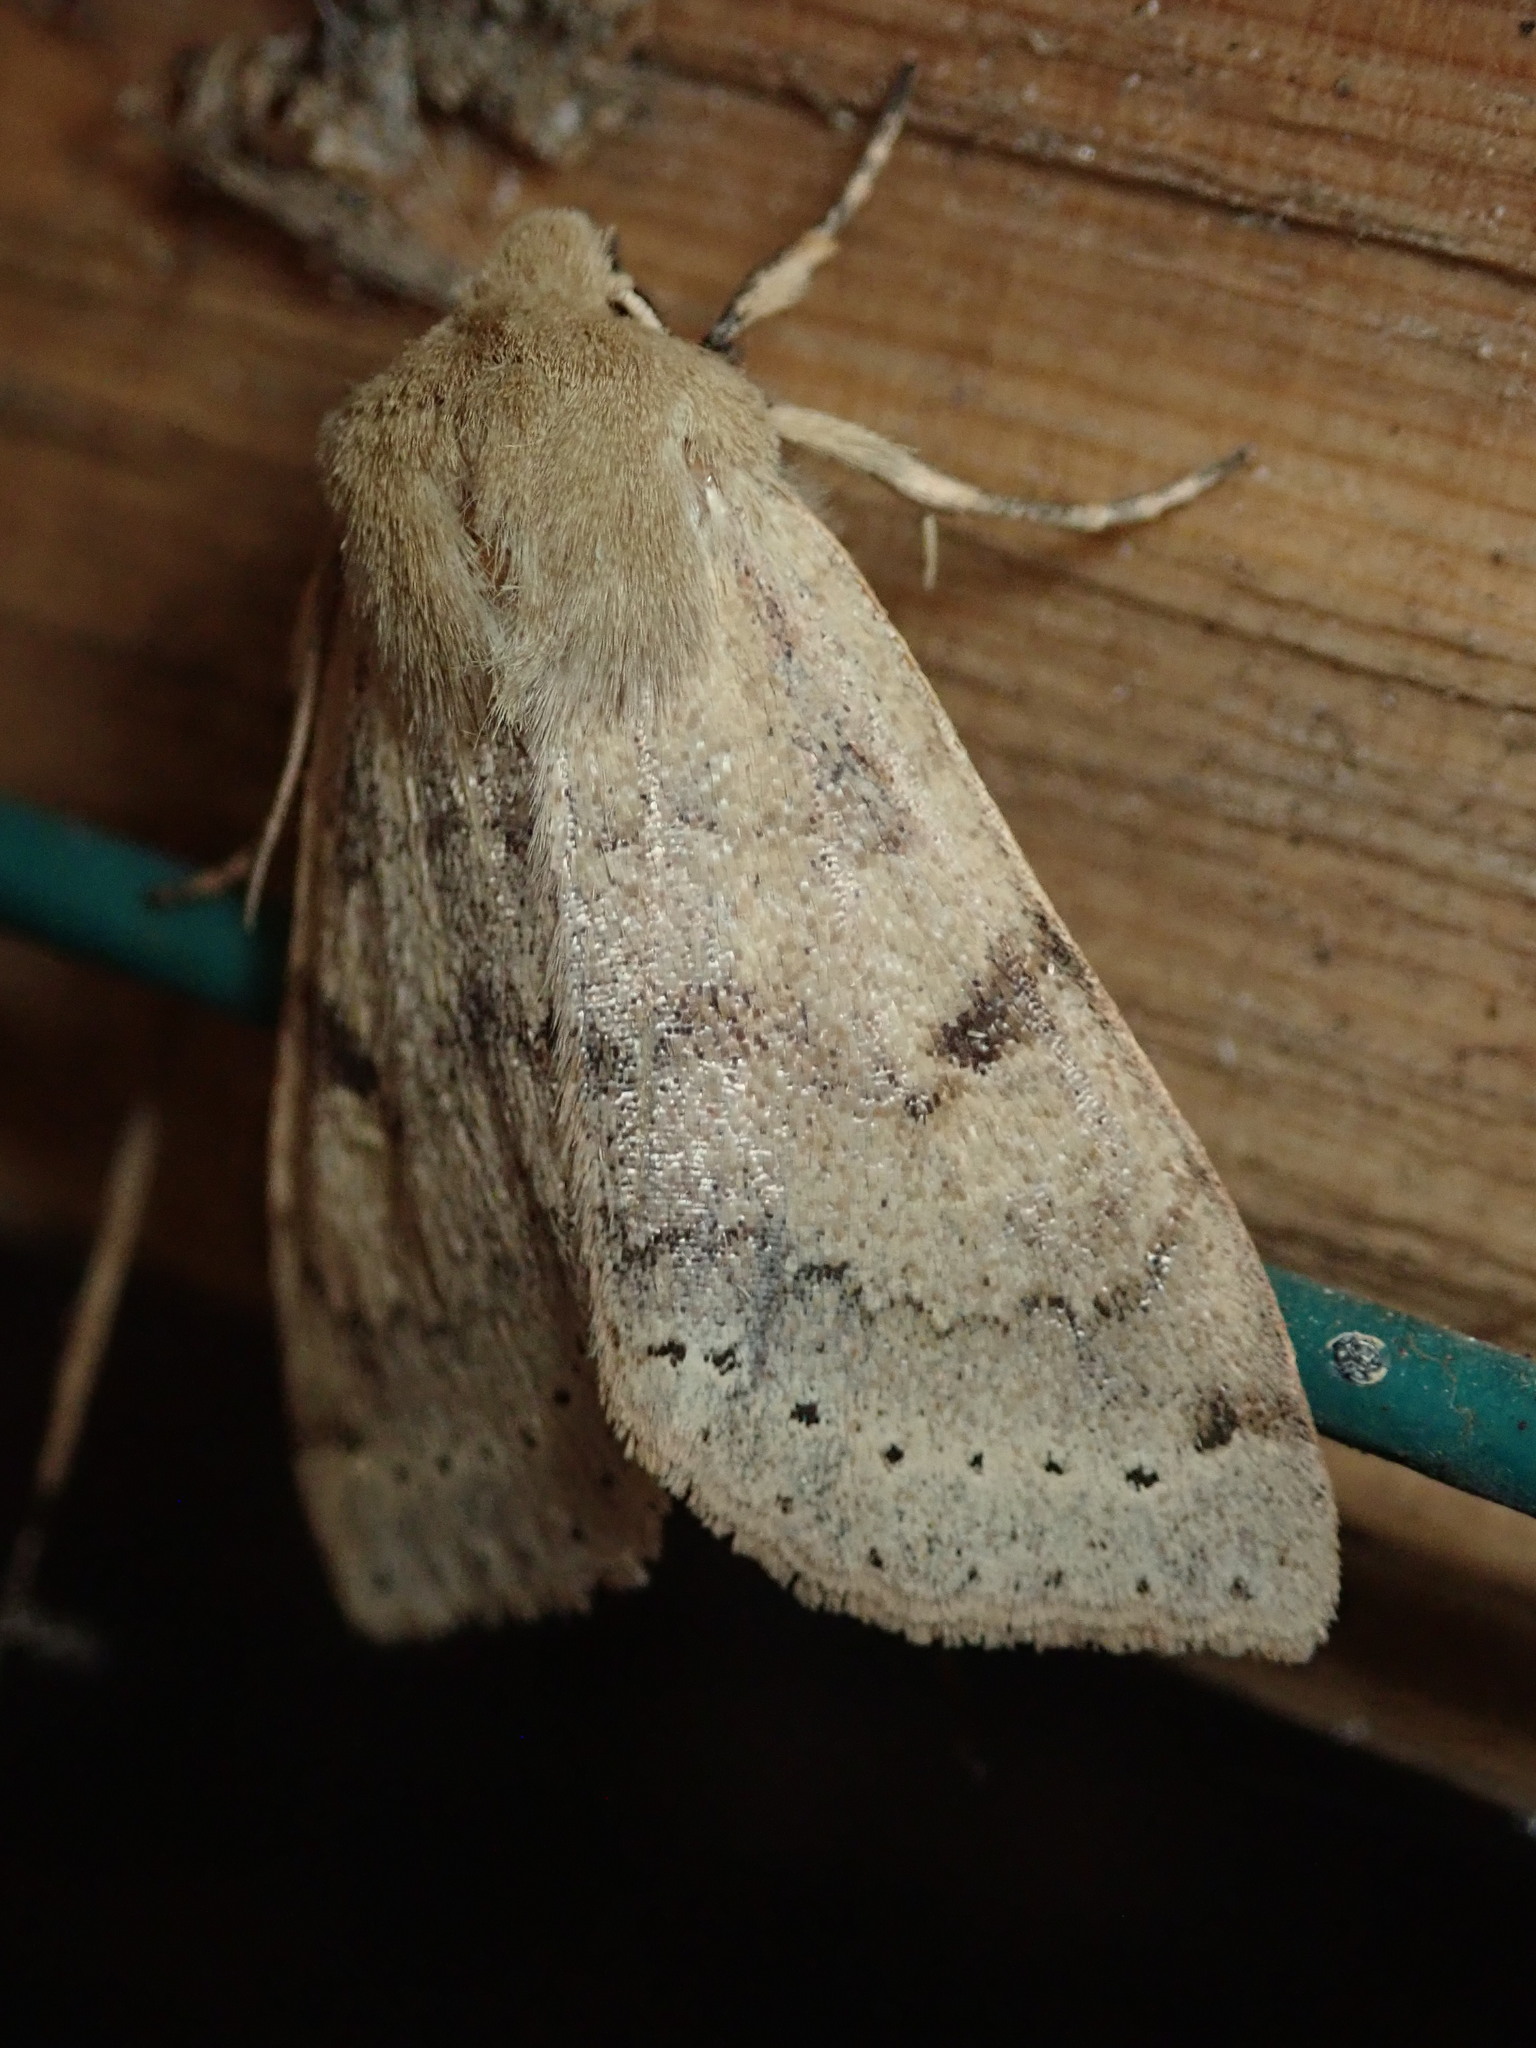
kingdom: Animalia
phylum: Arthropoda
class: Insecta
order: Lepidoptera
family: Noctuidae
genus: Orthosia
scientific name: Orthosia arthrolita
